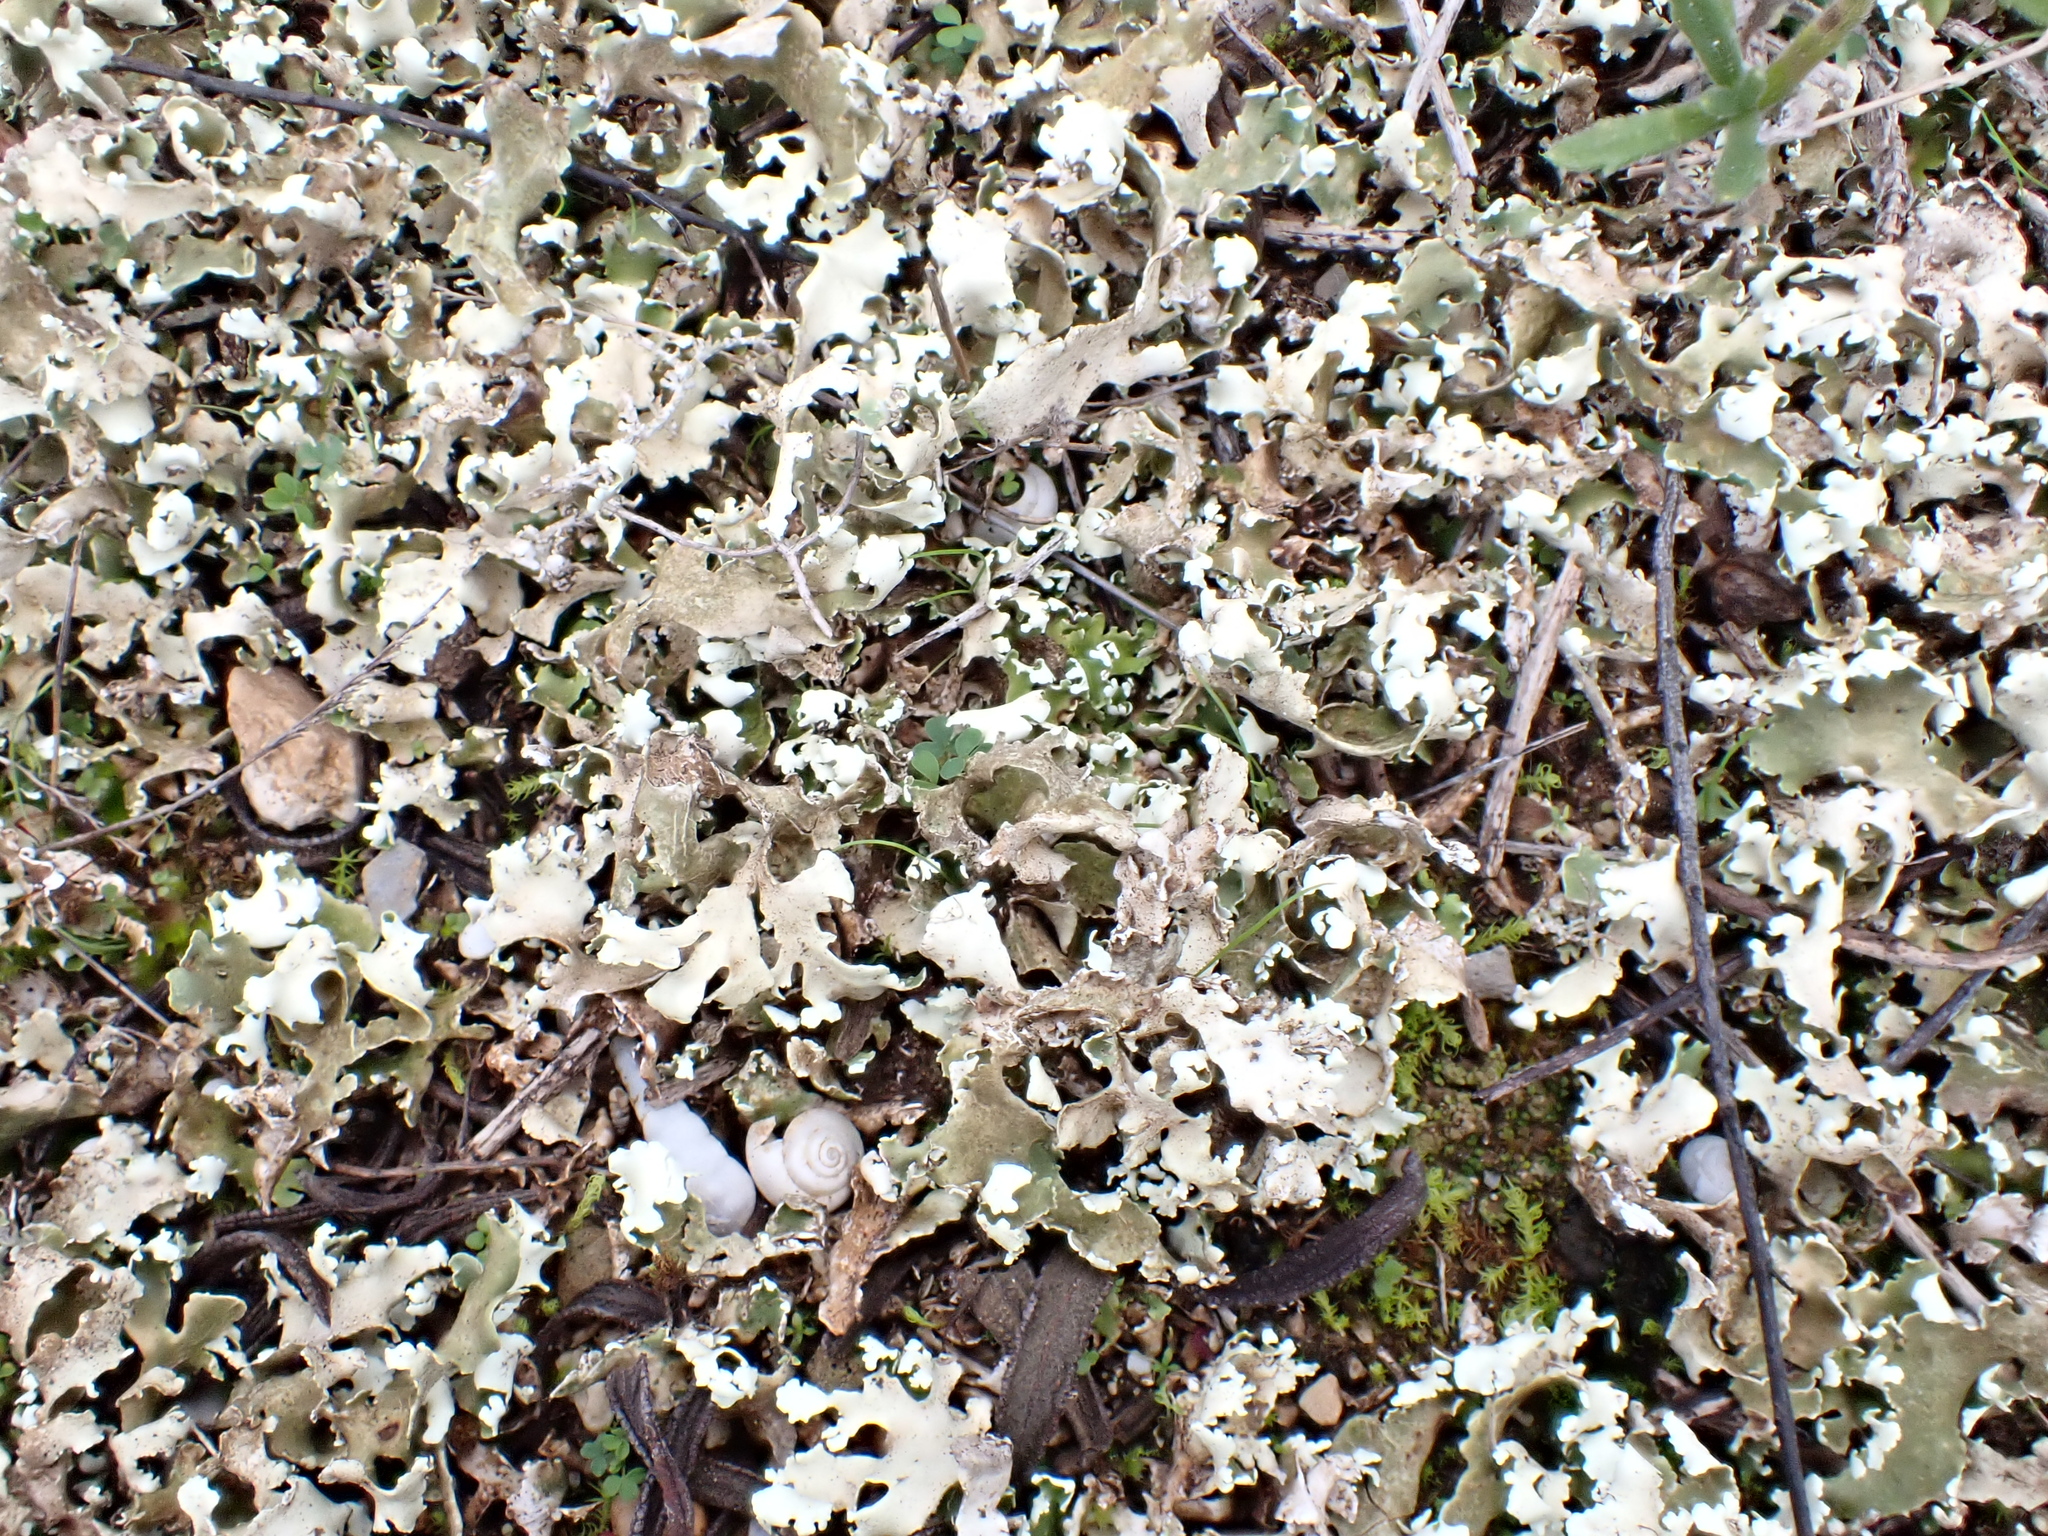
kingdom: Fungi
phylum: Ascomycota
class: Lecanoromycetes
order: Lecanorales
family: Cladoniaceae
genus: Cladonia
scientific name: Cladonia foliacea
